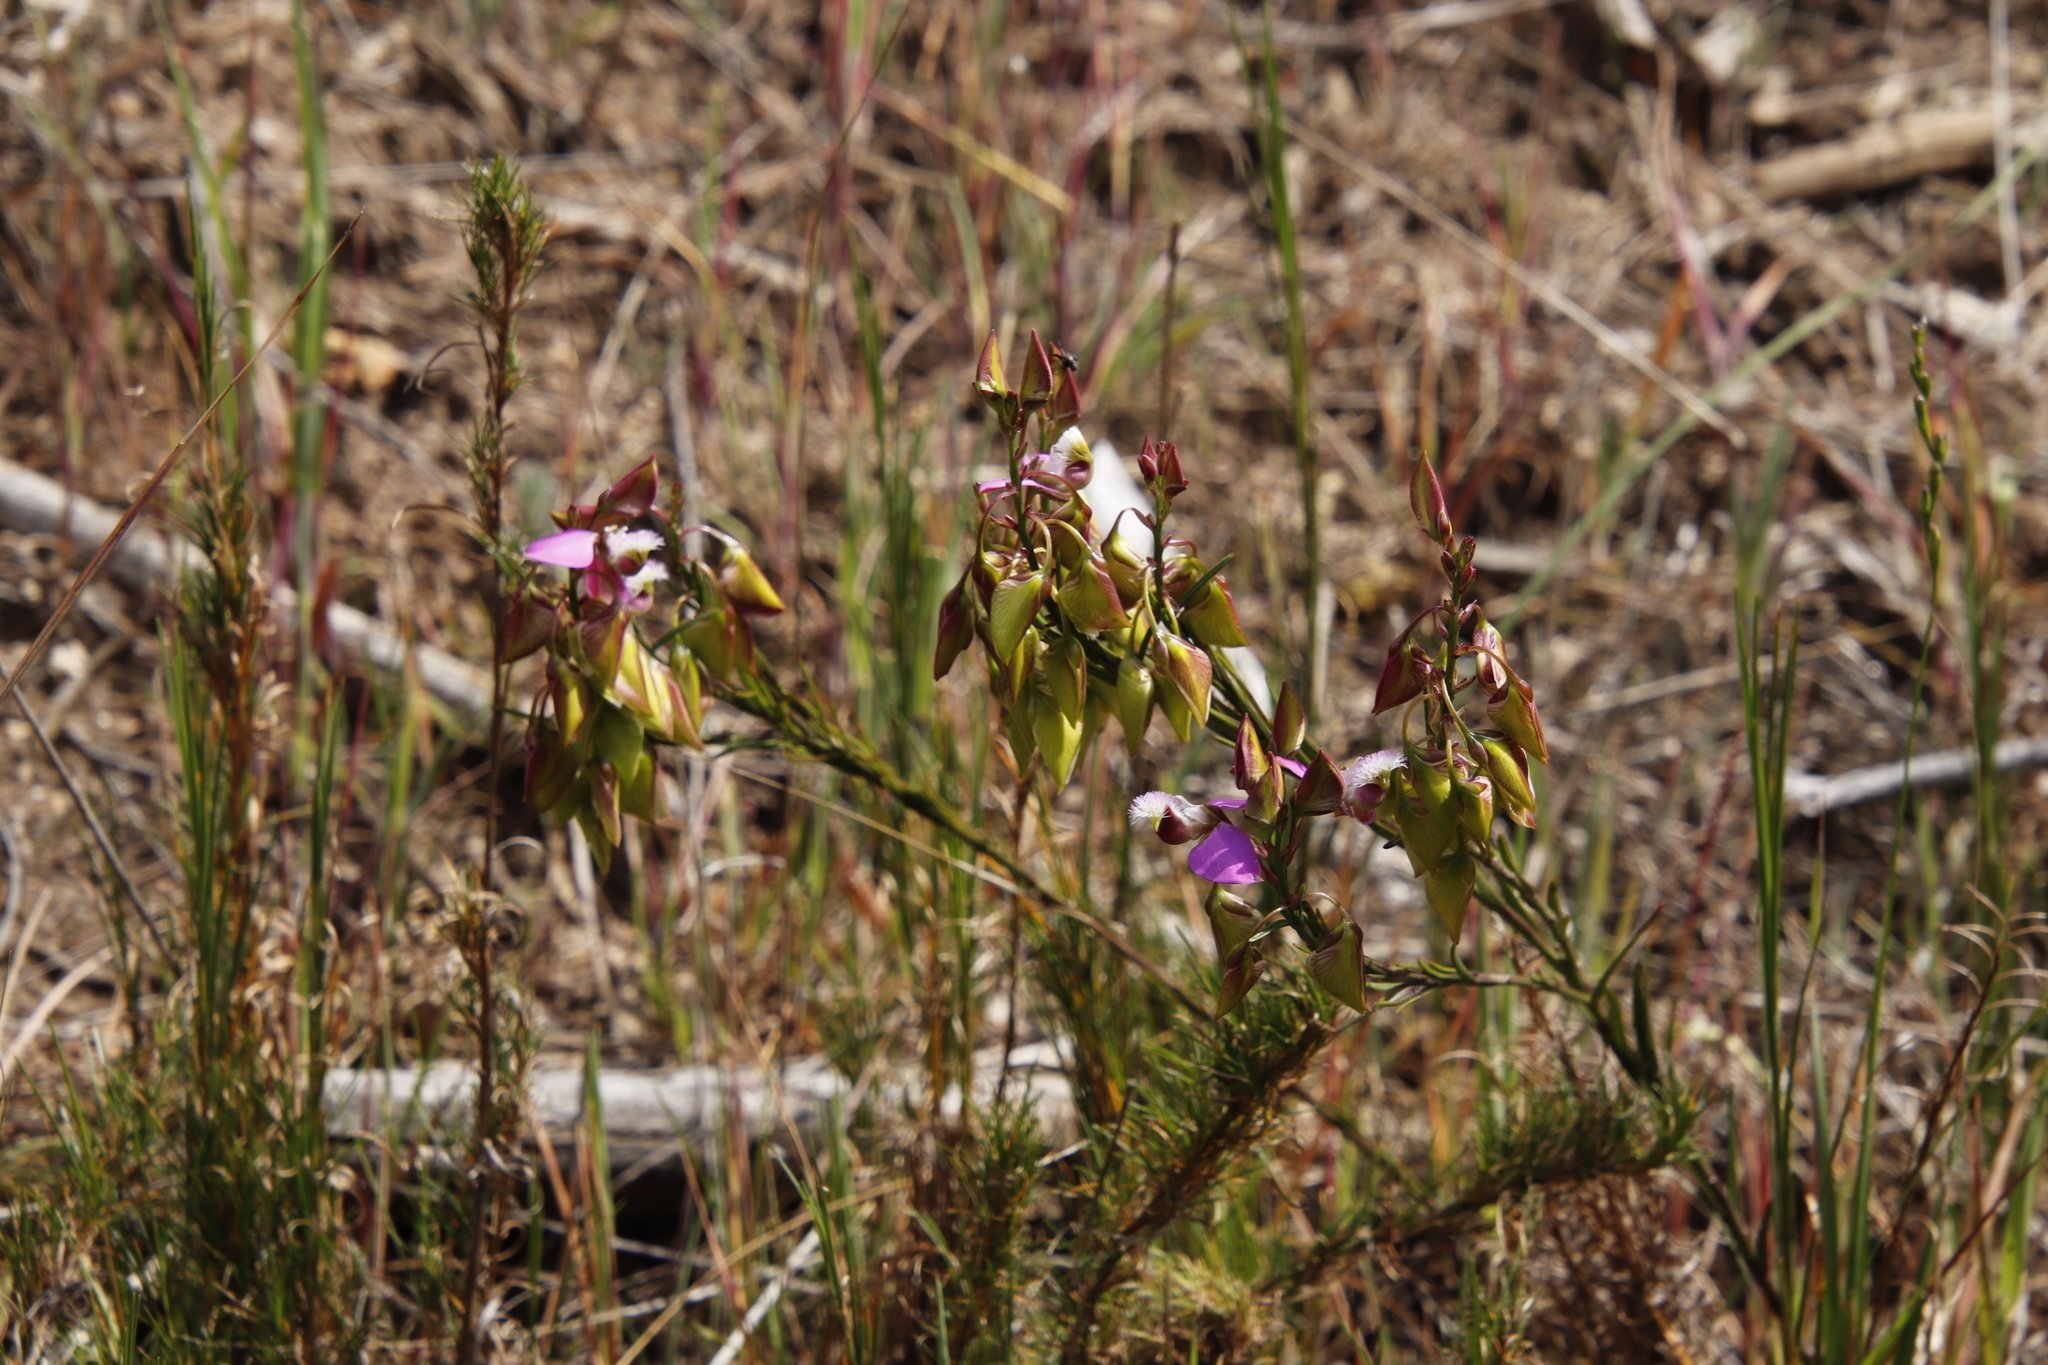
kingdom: Plantae
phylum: Tracheophyta
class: Magnoliopsida
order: Fabales
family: Polygalaceae
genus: Polygala
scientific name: Polygala bracteolata
